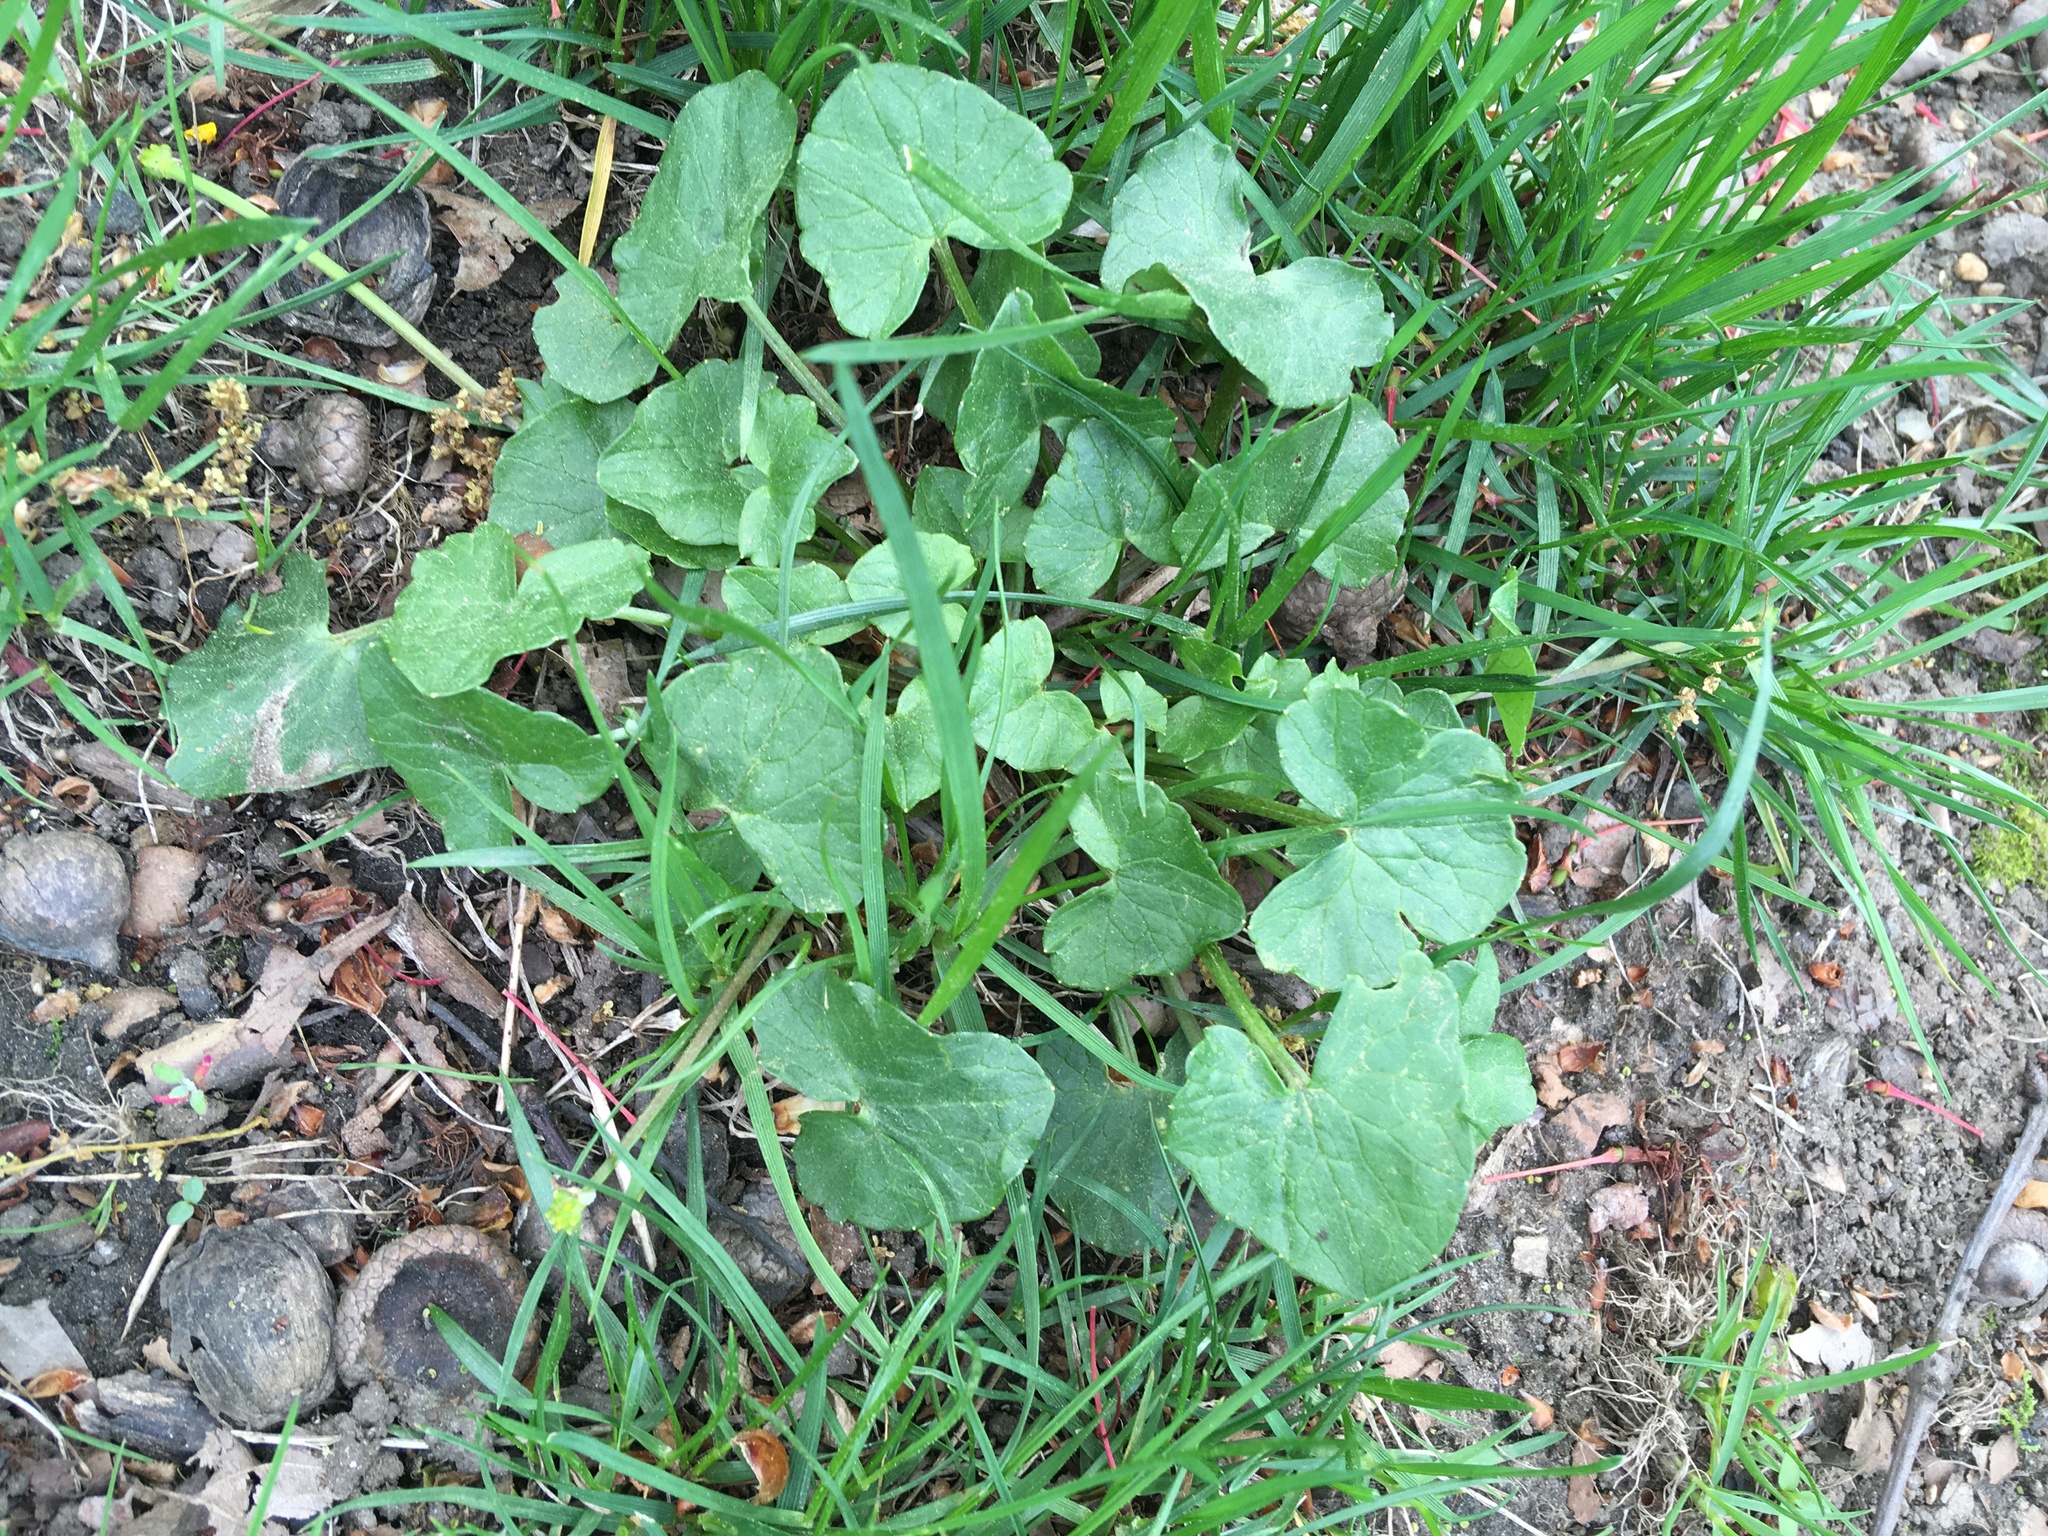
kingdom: Plantae
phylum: Tracheophyta
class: Magnoliopsida
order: Ranunculales
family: Ranunculaceae
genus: Ficaria
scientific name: Ficaria verna
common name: Lesser celandine
